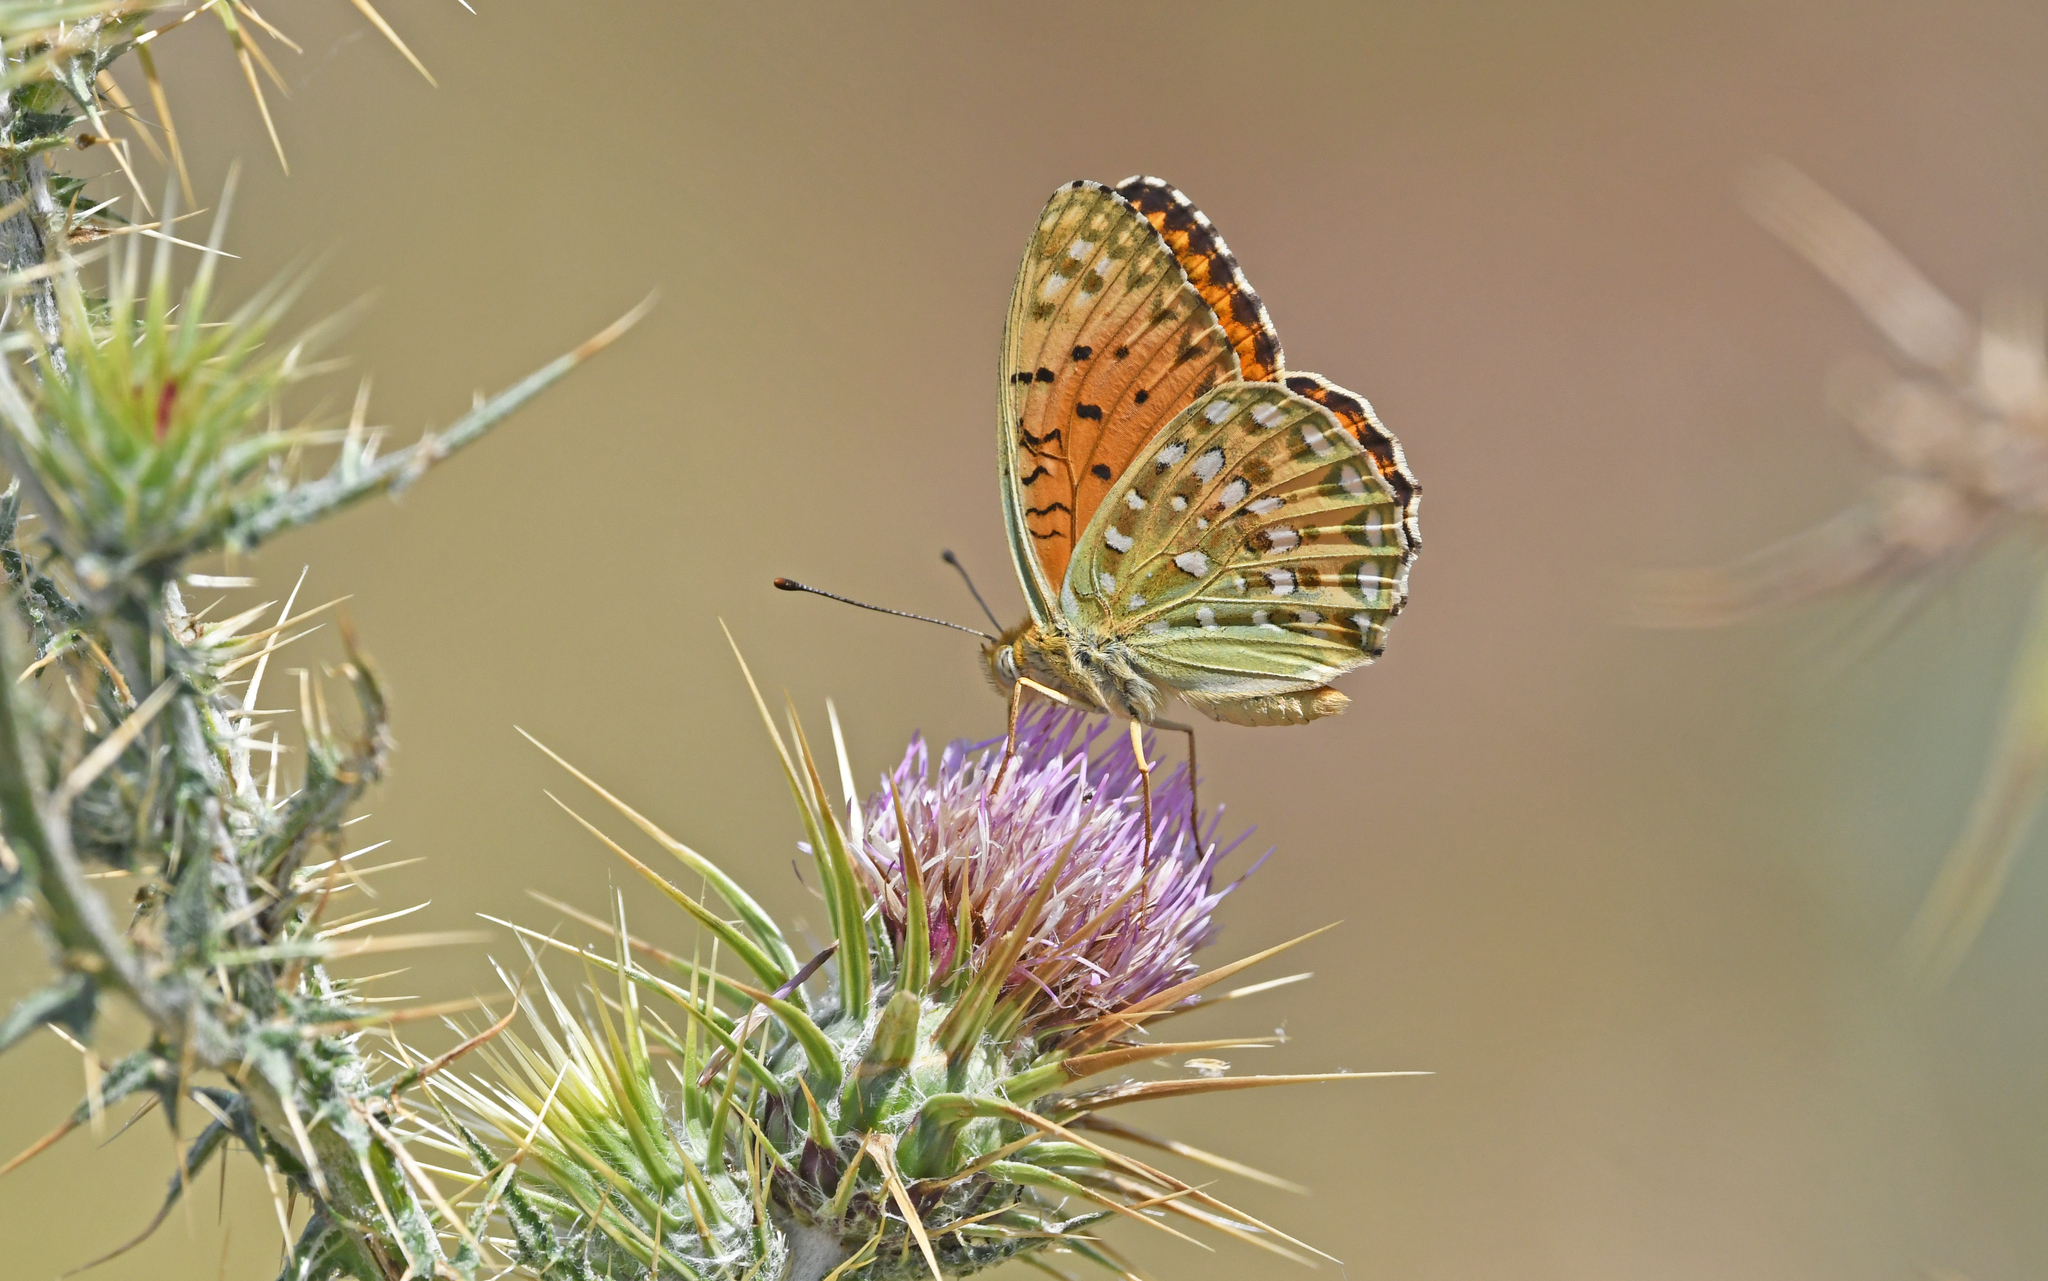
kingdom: Animalia
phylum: Arthropoda
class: Insecta
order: Lepidoptera
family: Nymphalidae
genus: Fabriciana
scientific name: Fabriciana niobe
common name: Niobe fritillary
